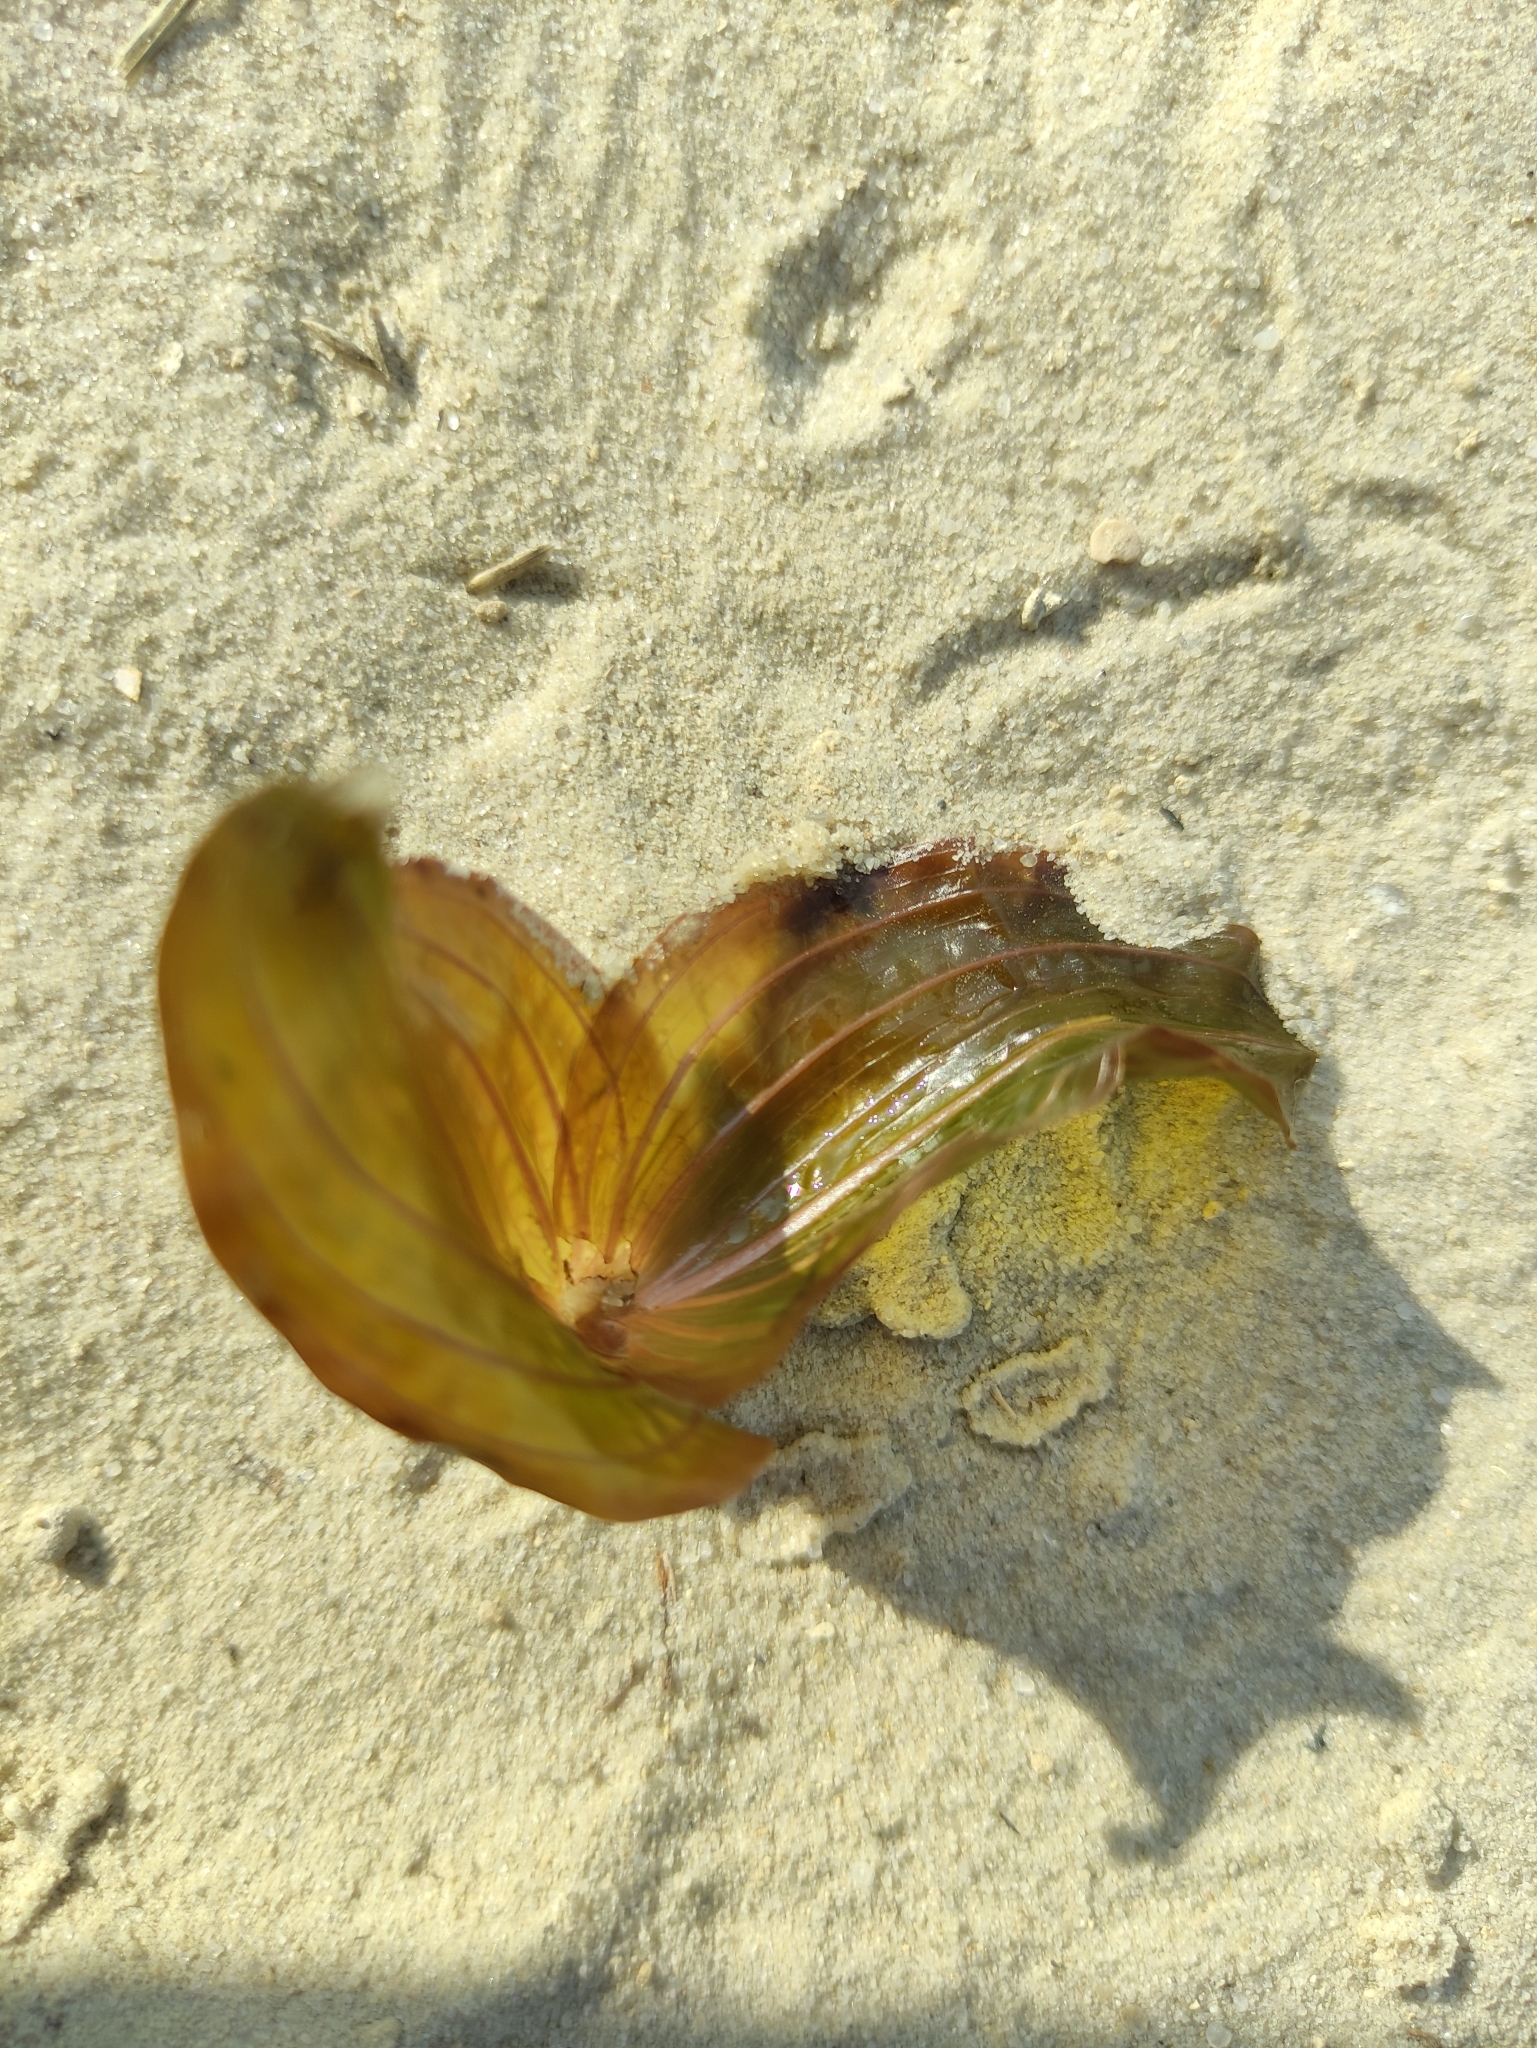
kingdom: Plantae
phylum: Tracheophyta
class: Liliopsida
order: Alismatales
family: Potamogetonaceae
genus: Potamogeton
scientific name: Potamogeton perfoliatus
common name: Perfoliate pondweed
